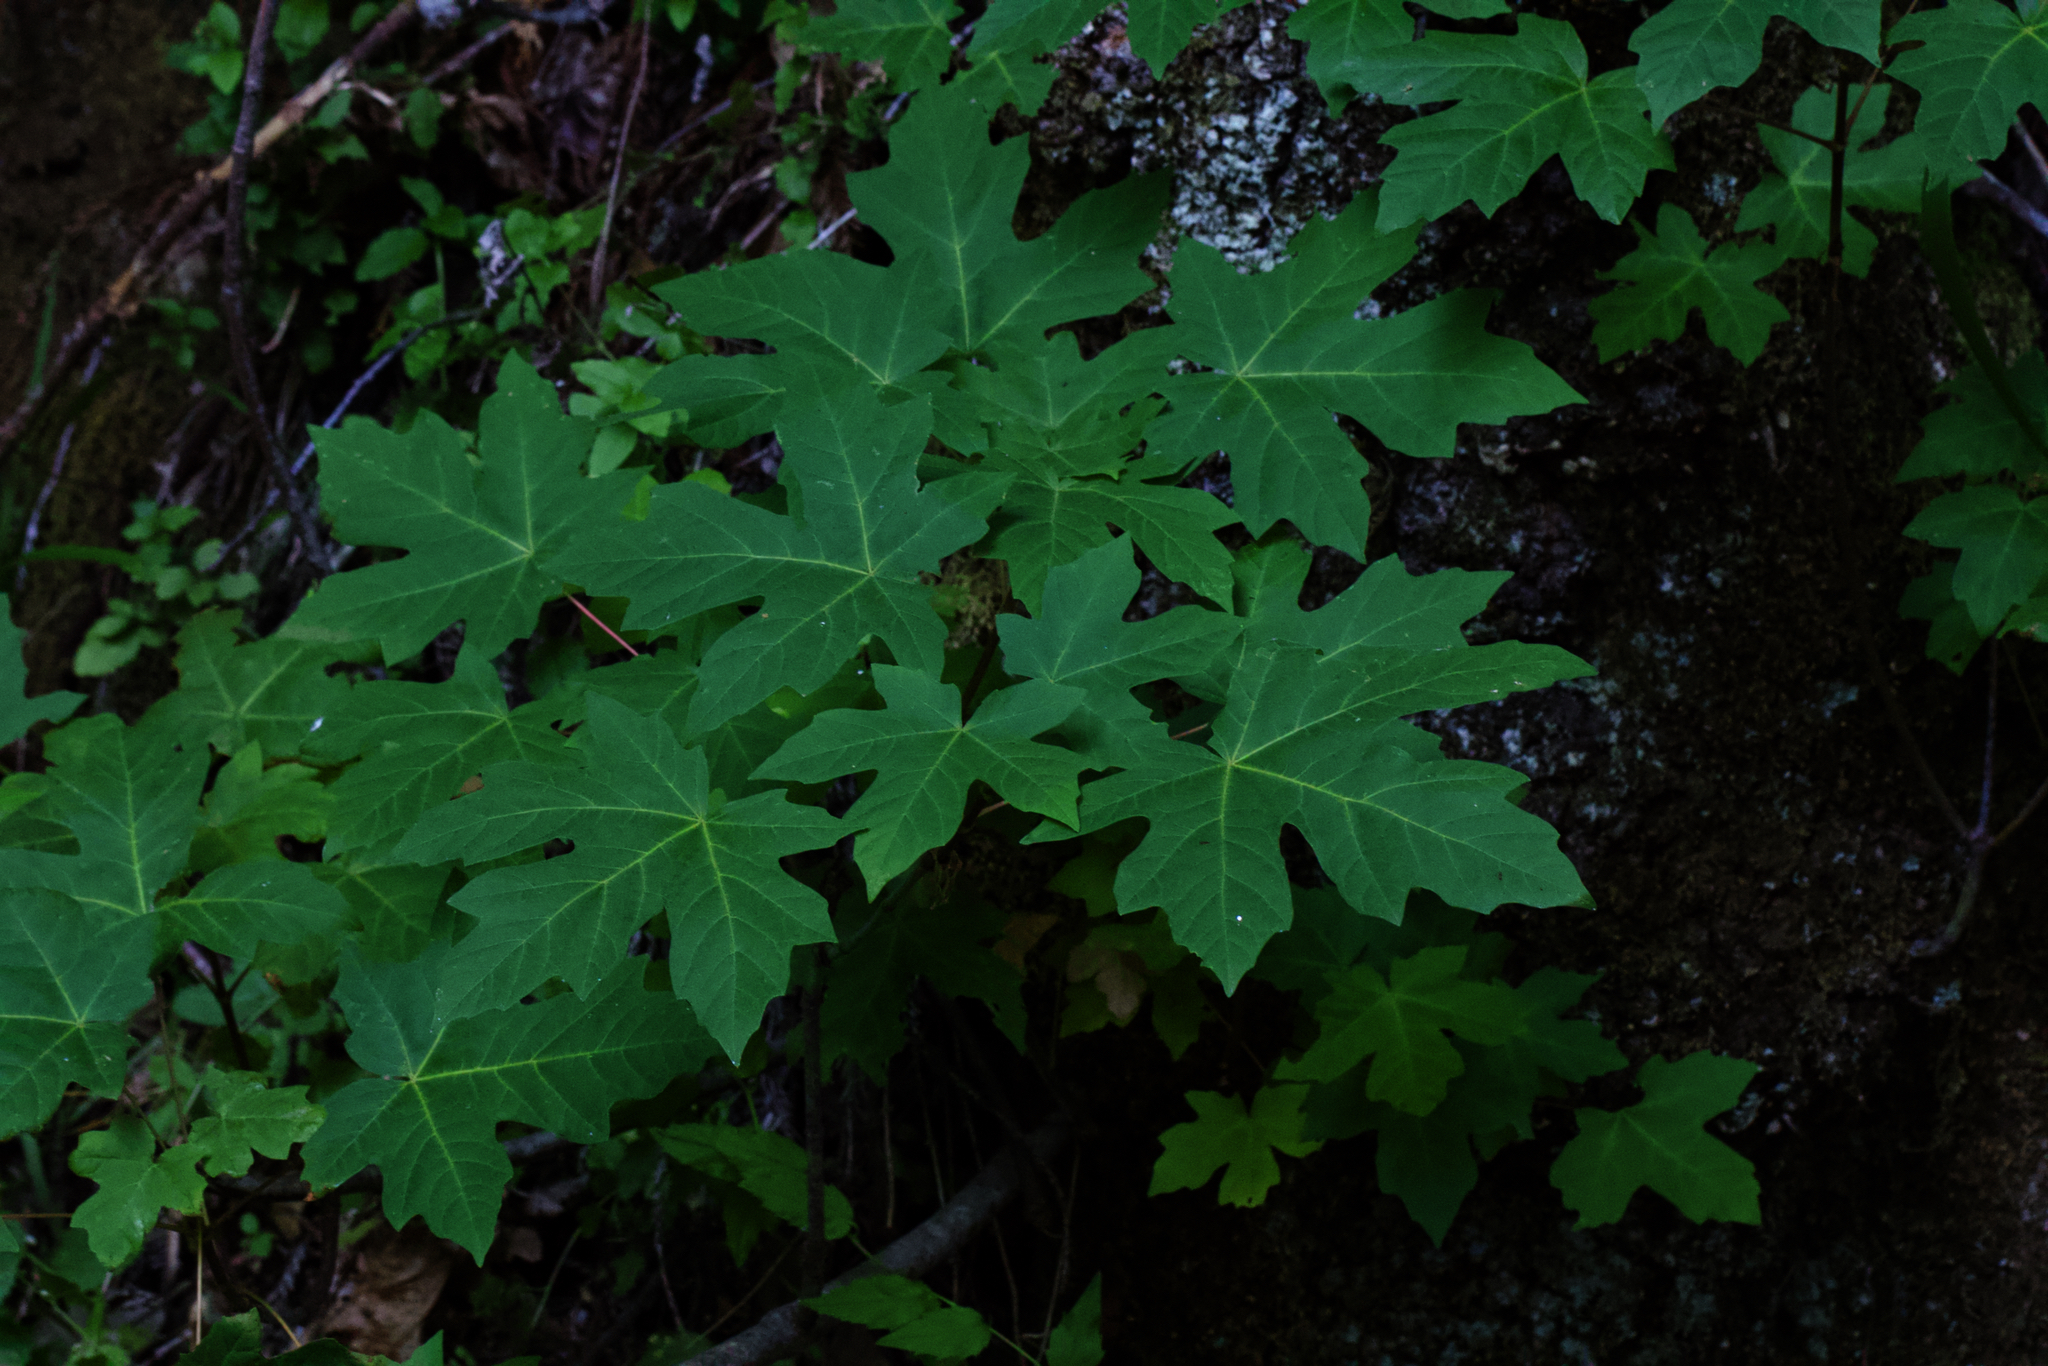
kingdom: Plantae
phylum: Tracheophyta
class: Magnoliopsida
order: Sapindales
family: Sapindaceae
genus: Acer
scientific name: Acer macrophyllum
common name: Oregon maple
